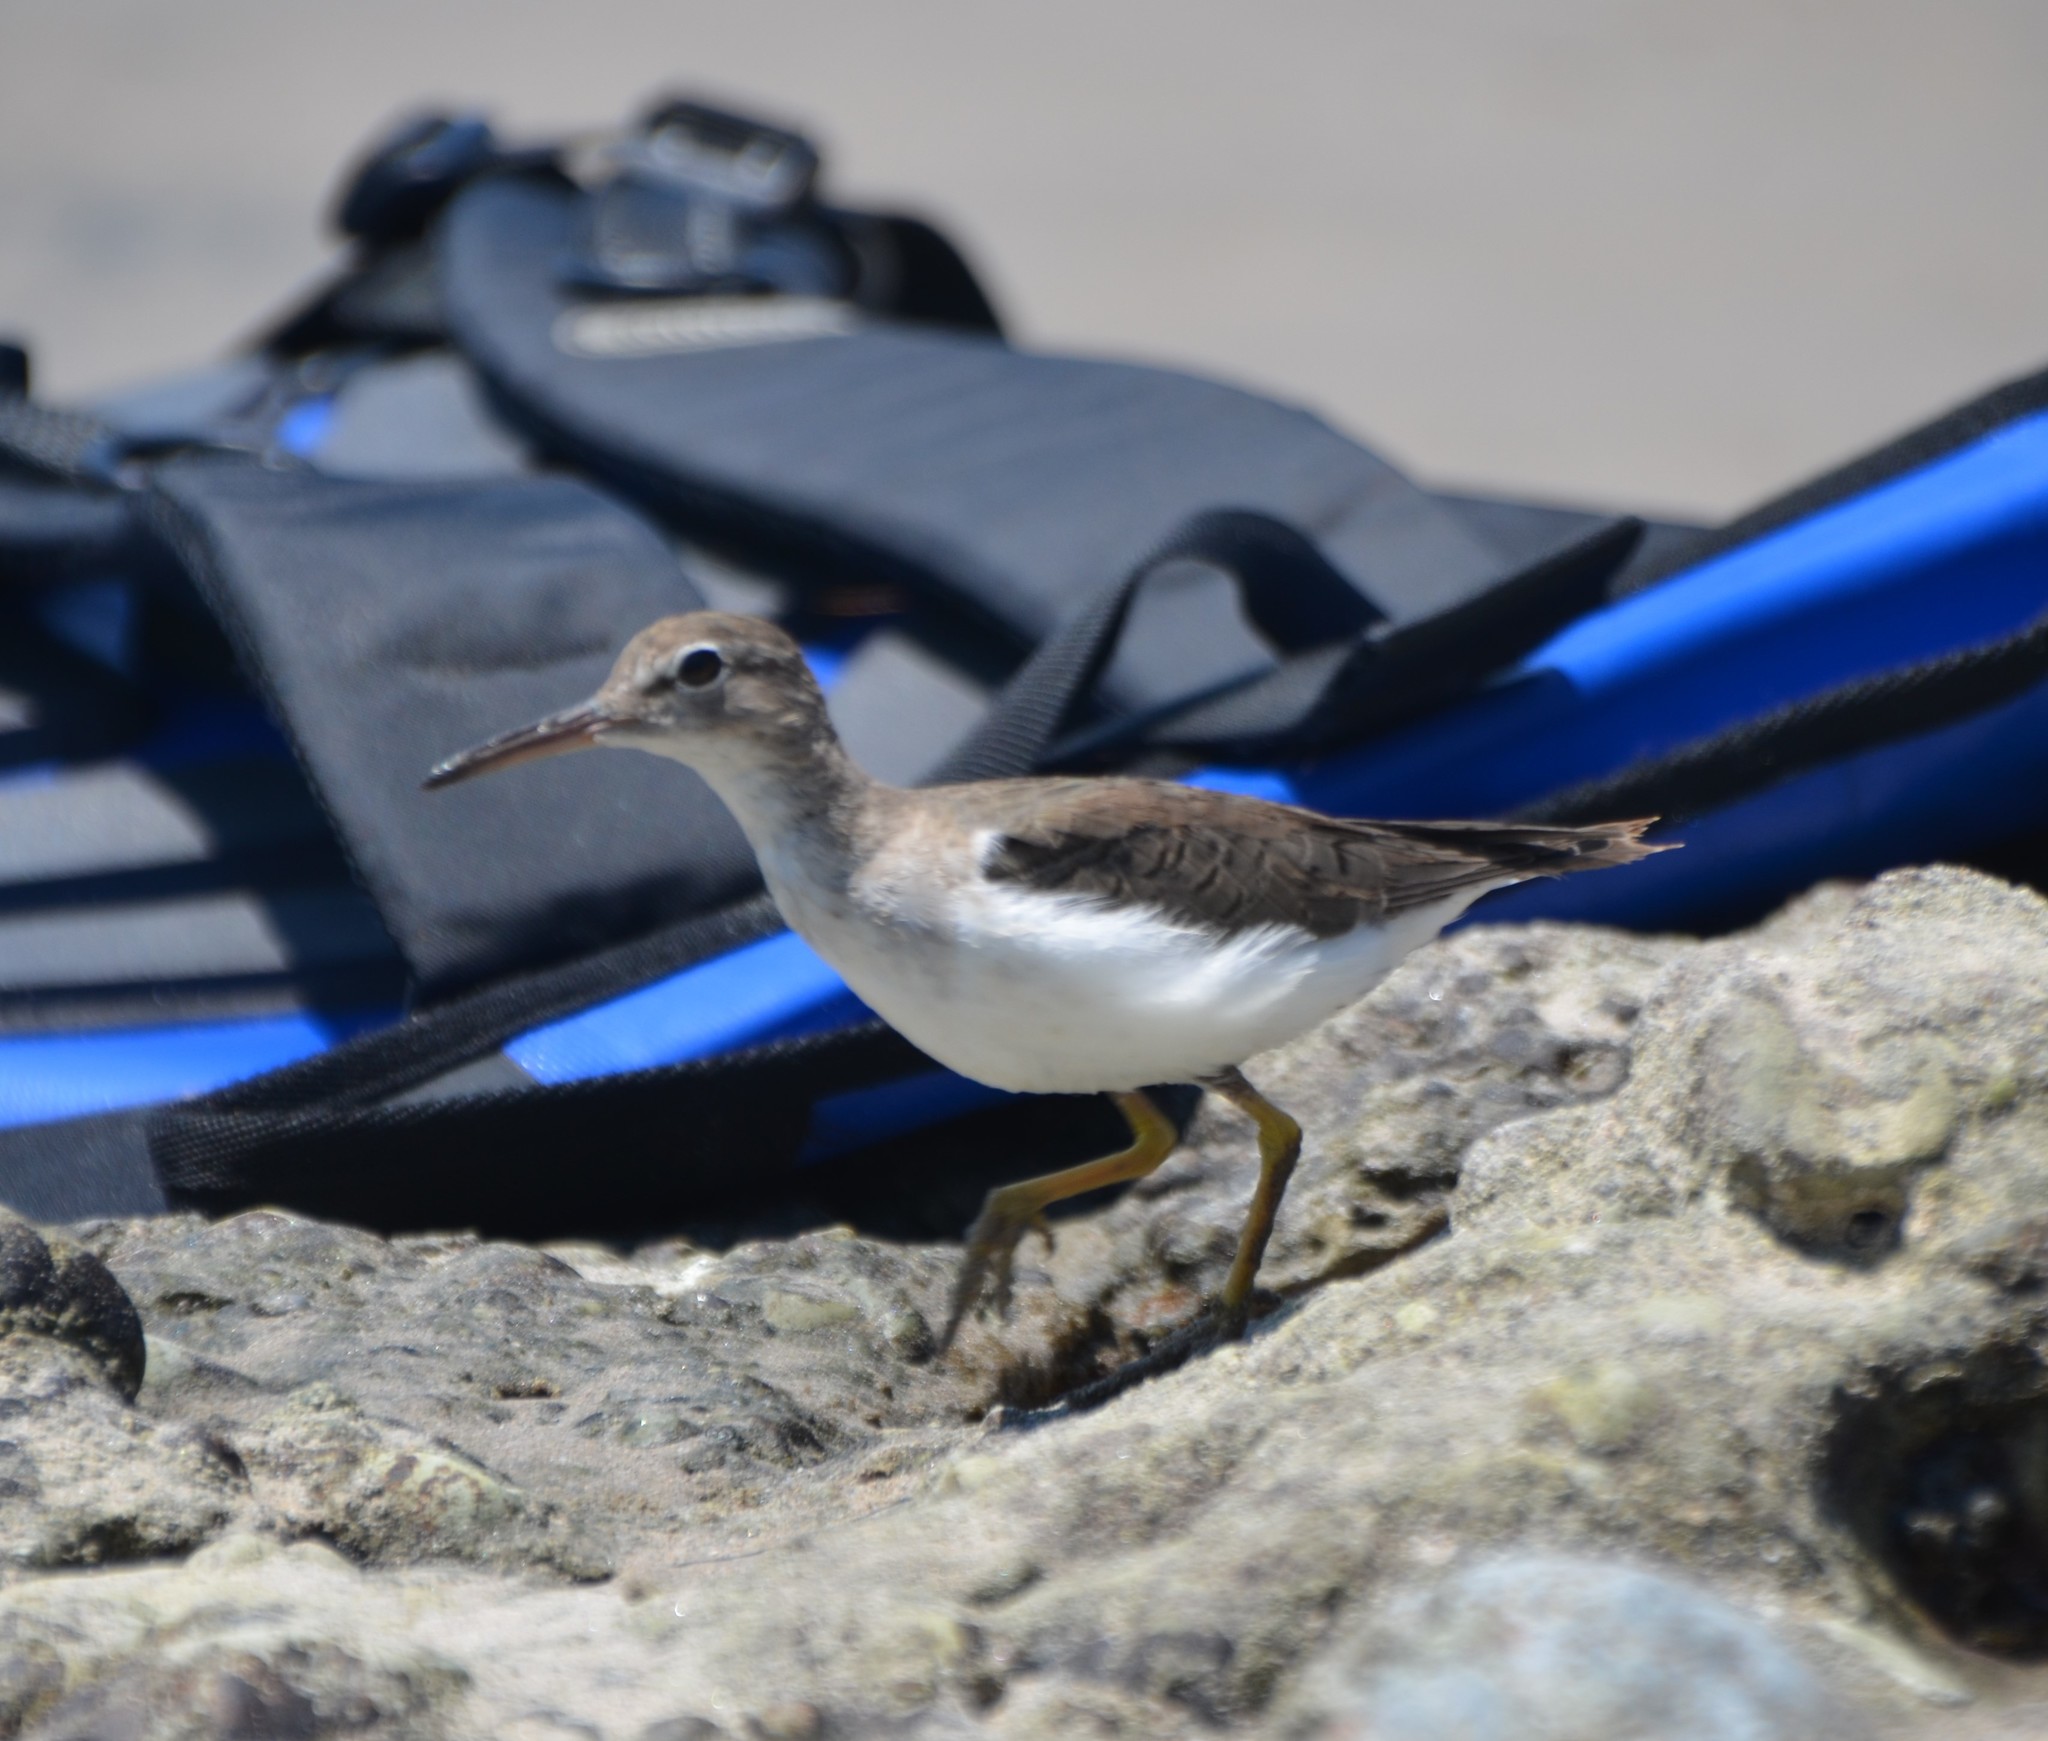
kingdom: Animalia
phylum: Chordata
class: Aves
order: Charadriiformes
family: Scolopacidae
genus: Actitis
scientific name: Actitis macularius
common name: Spotted sandpiper
